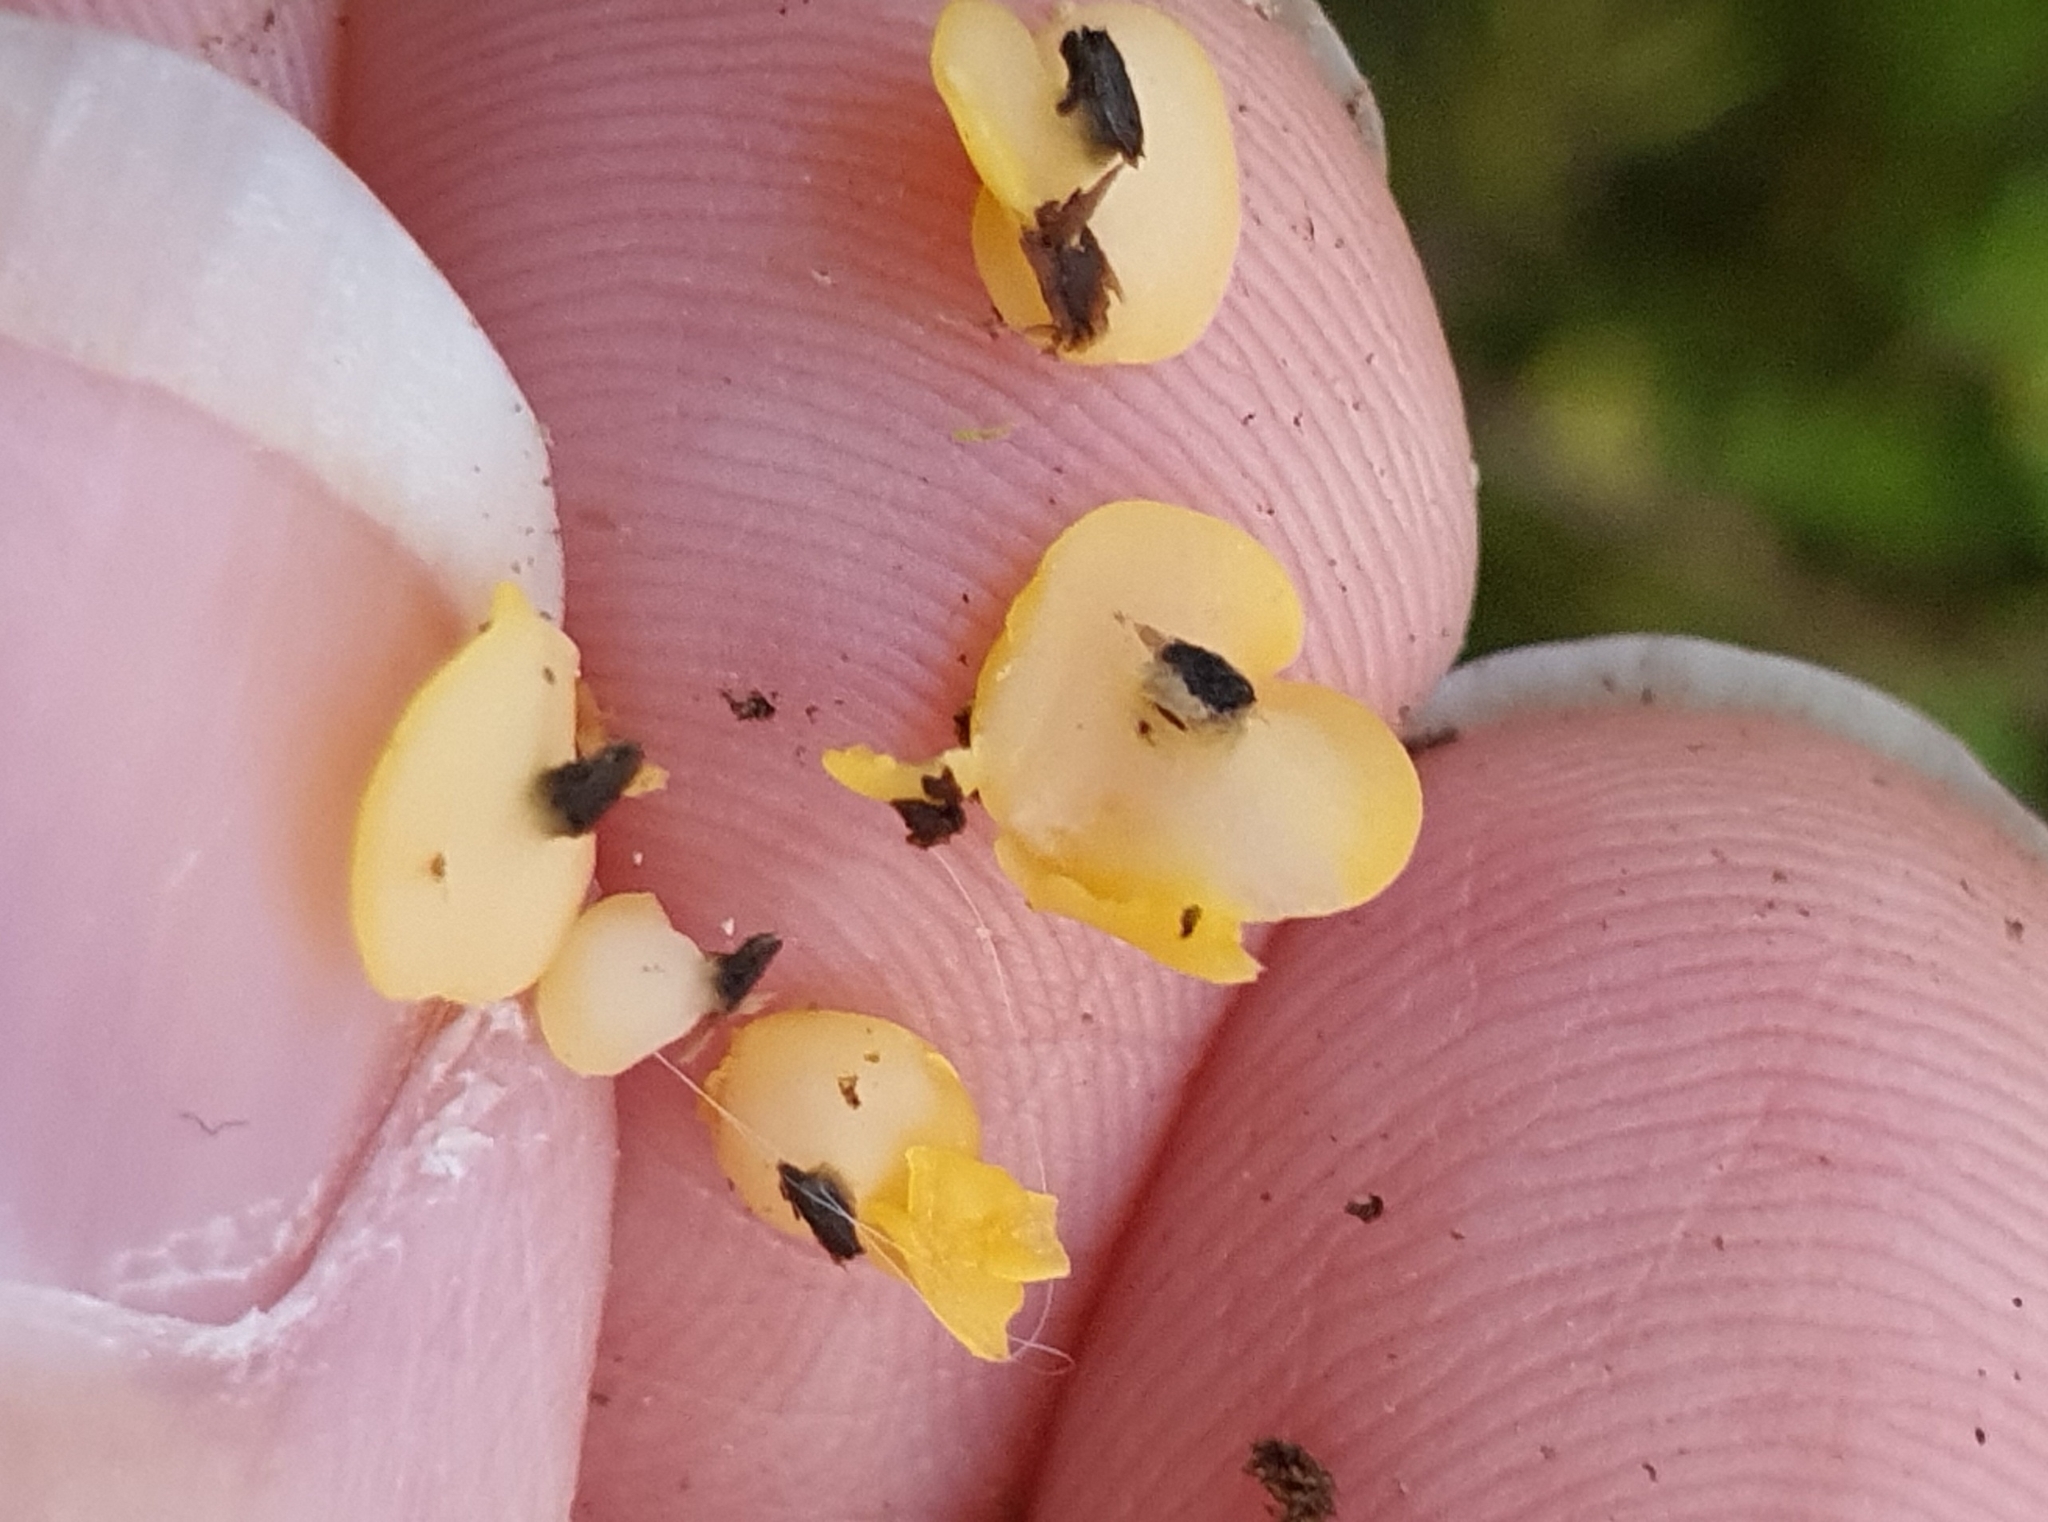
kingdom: Fungi
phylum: Ascomycota
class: Leotiomycetes
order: Helotiales
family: Pezizellaceae
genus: Calycina
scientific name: Calycina citrina
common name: Yellow fairy cups
